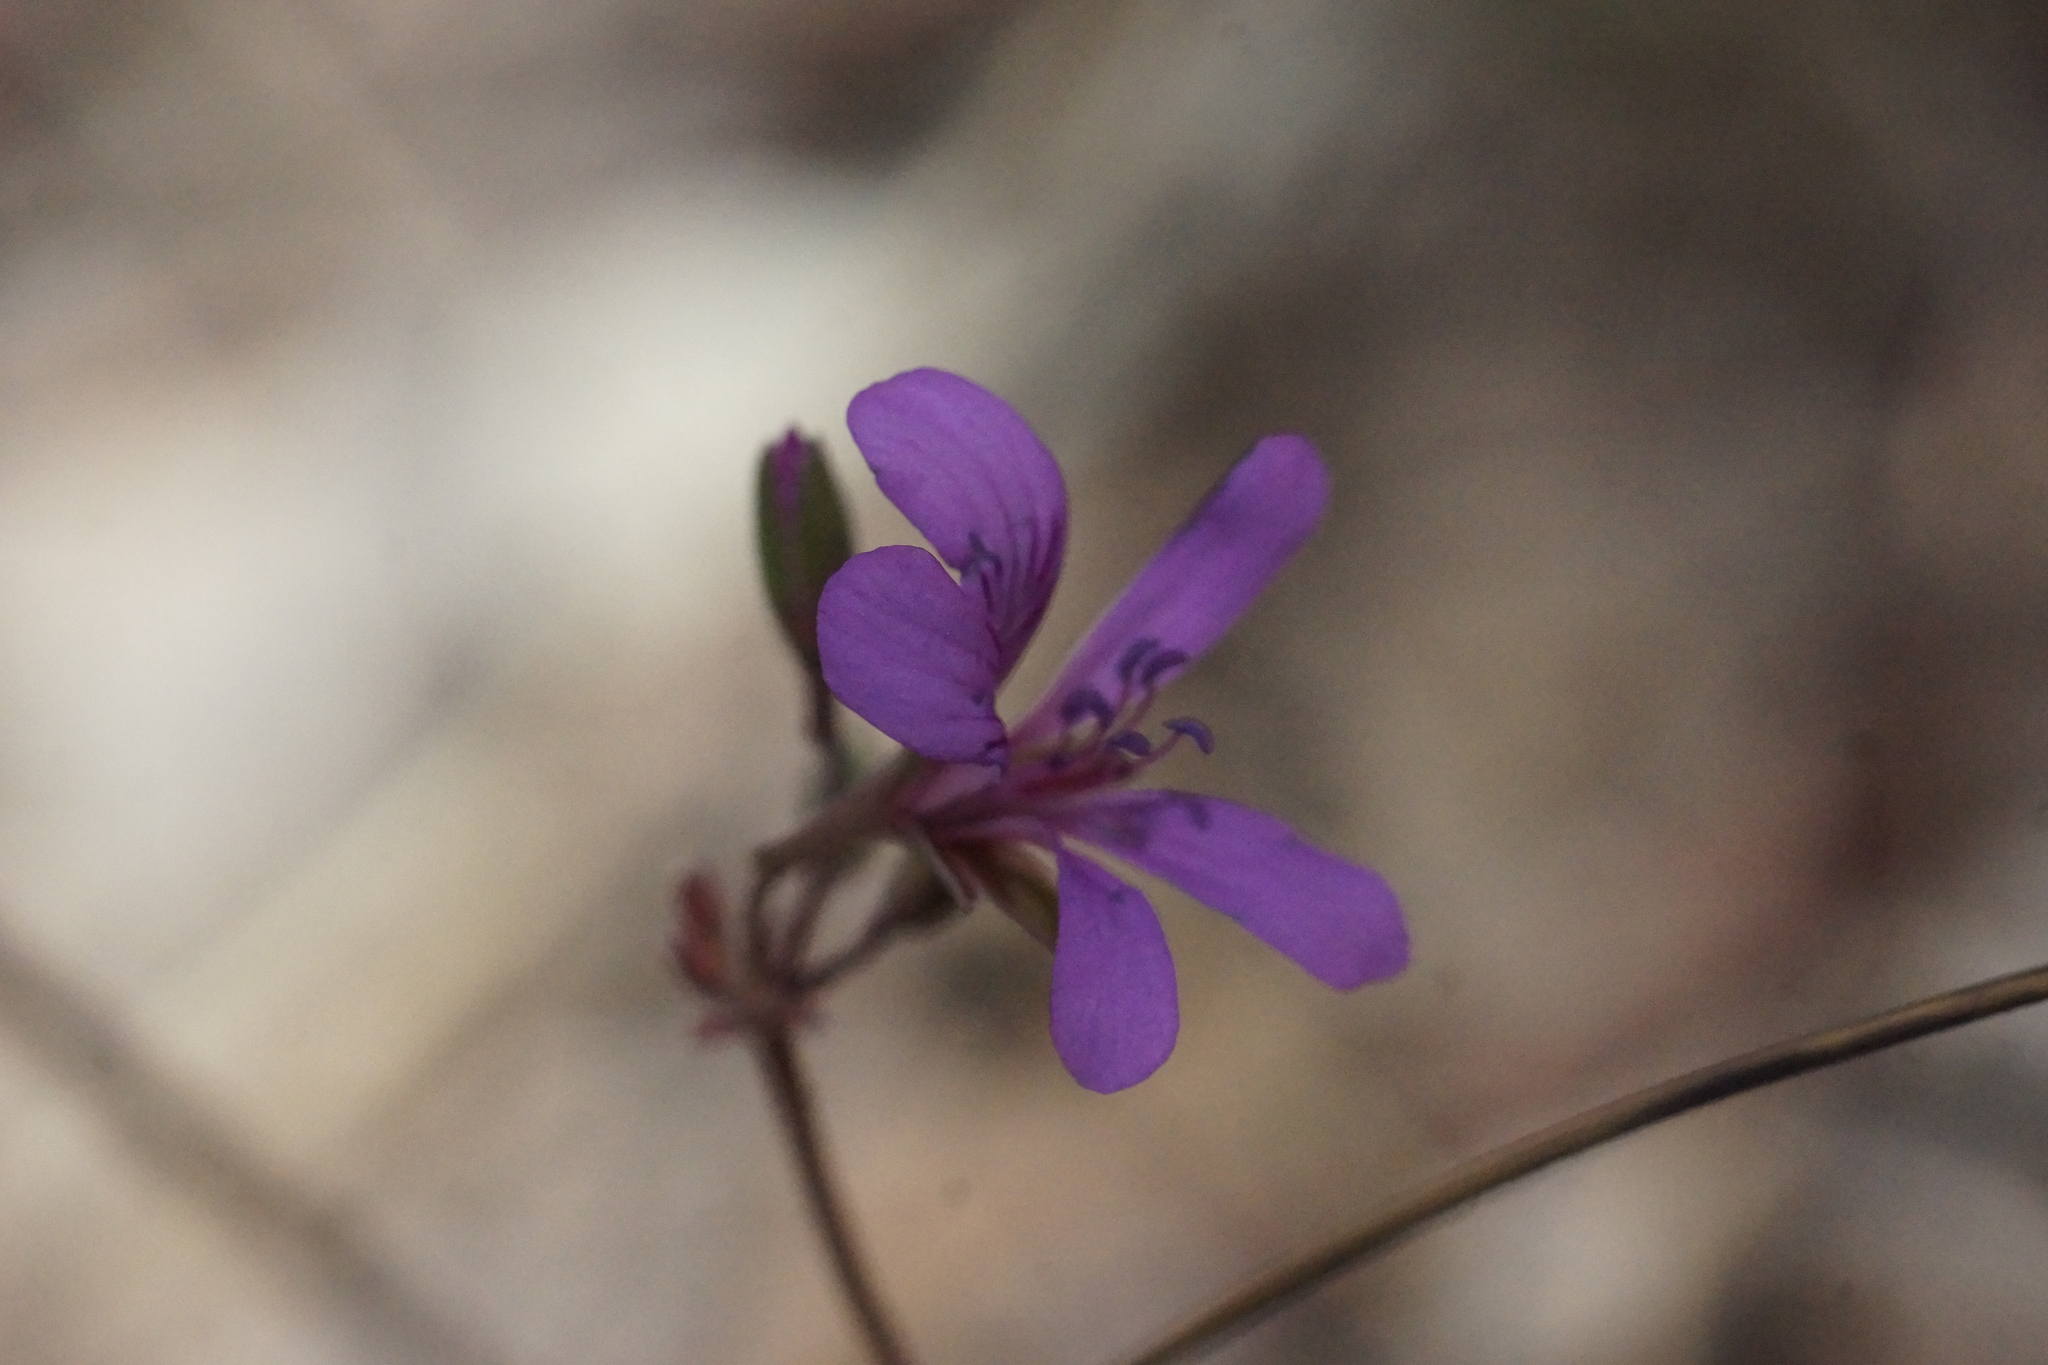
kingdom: Plantae
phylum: Tracheophyta
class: Magnoliopsida
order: Geraniales
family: Geraniaceae
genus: Pelargonium
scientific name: Pelargonium rodneyanum
